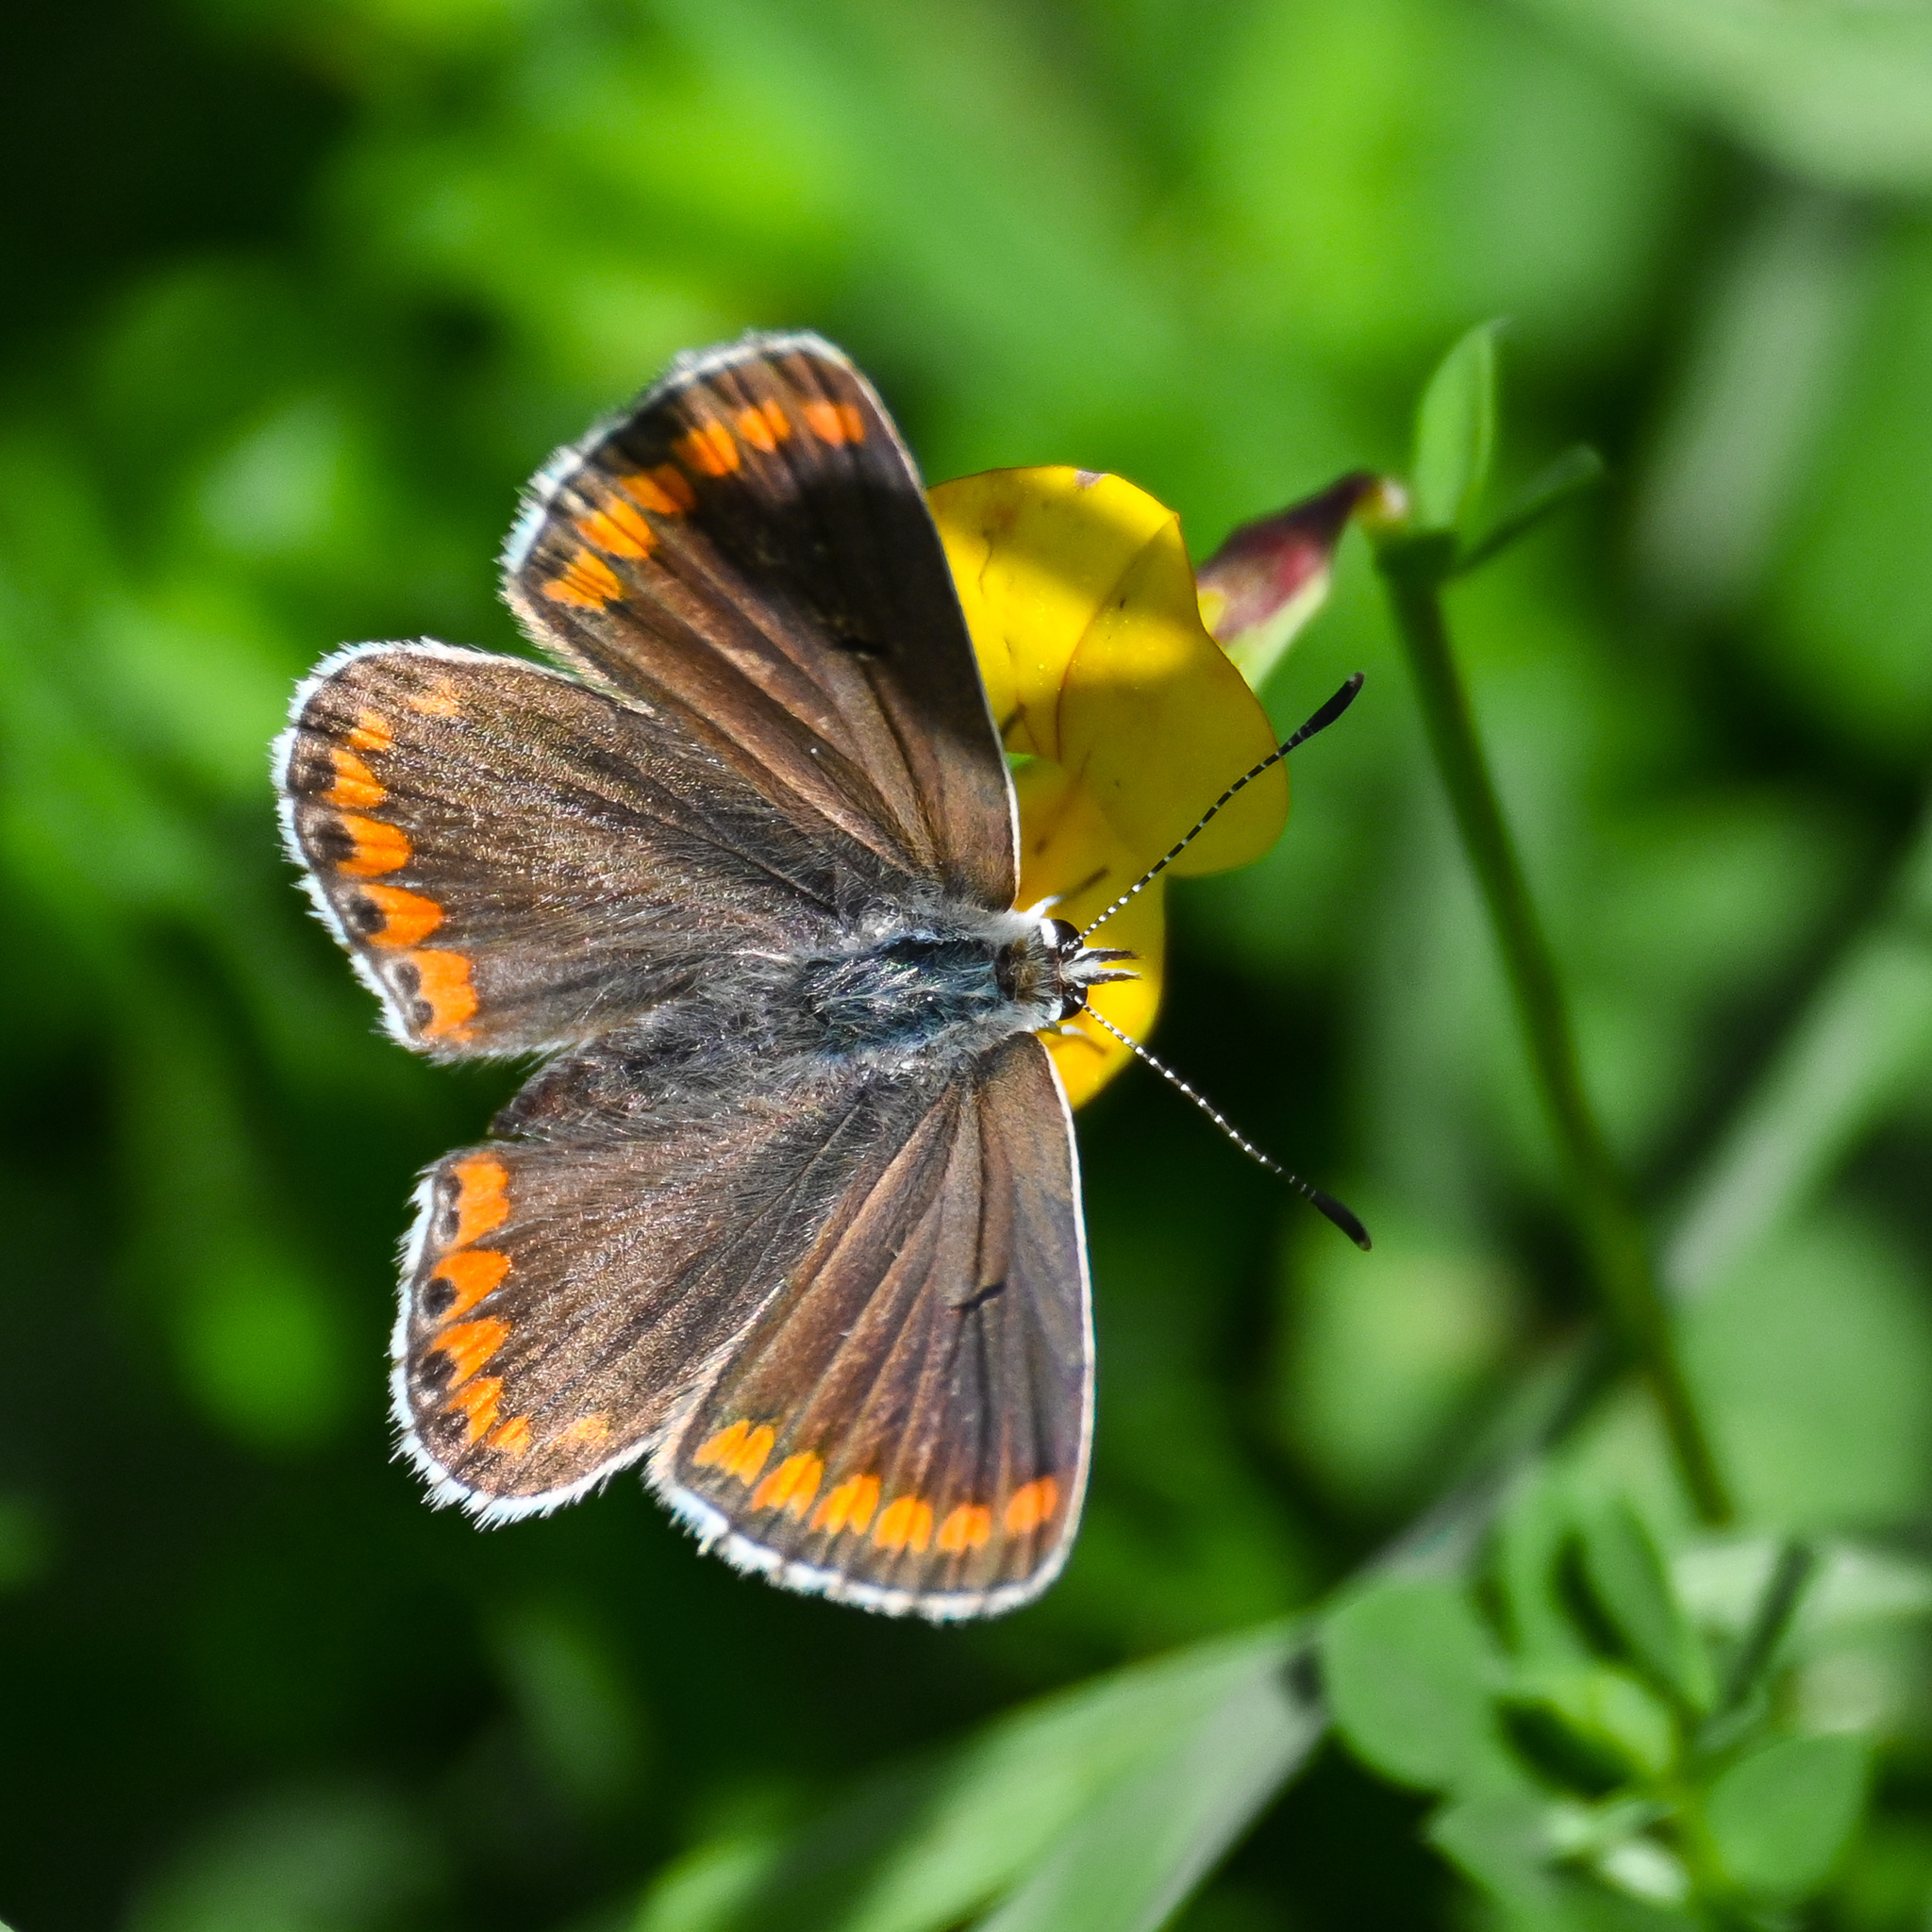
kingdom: Animalia
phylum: Arthropoda
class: Insecta
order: Lepidoptera
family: Lycaenidae
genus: Aricia
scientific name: Aricia agestis
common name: Brown argus
